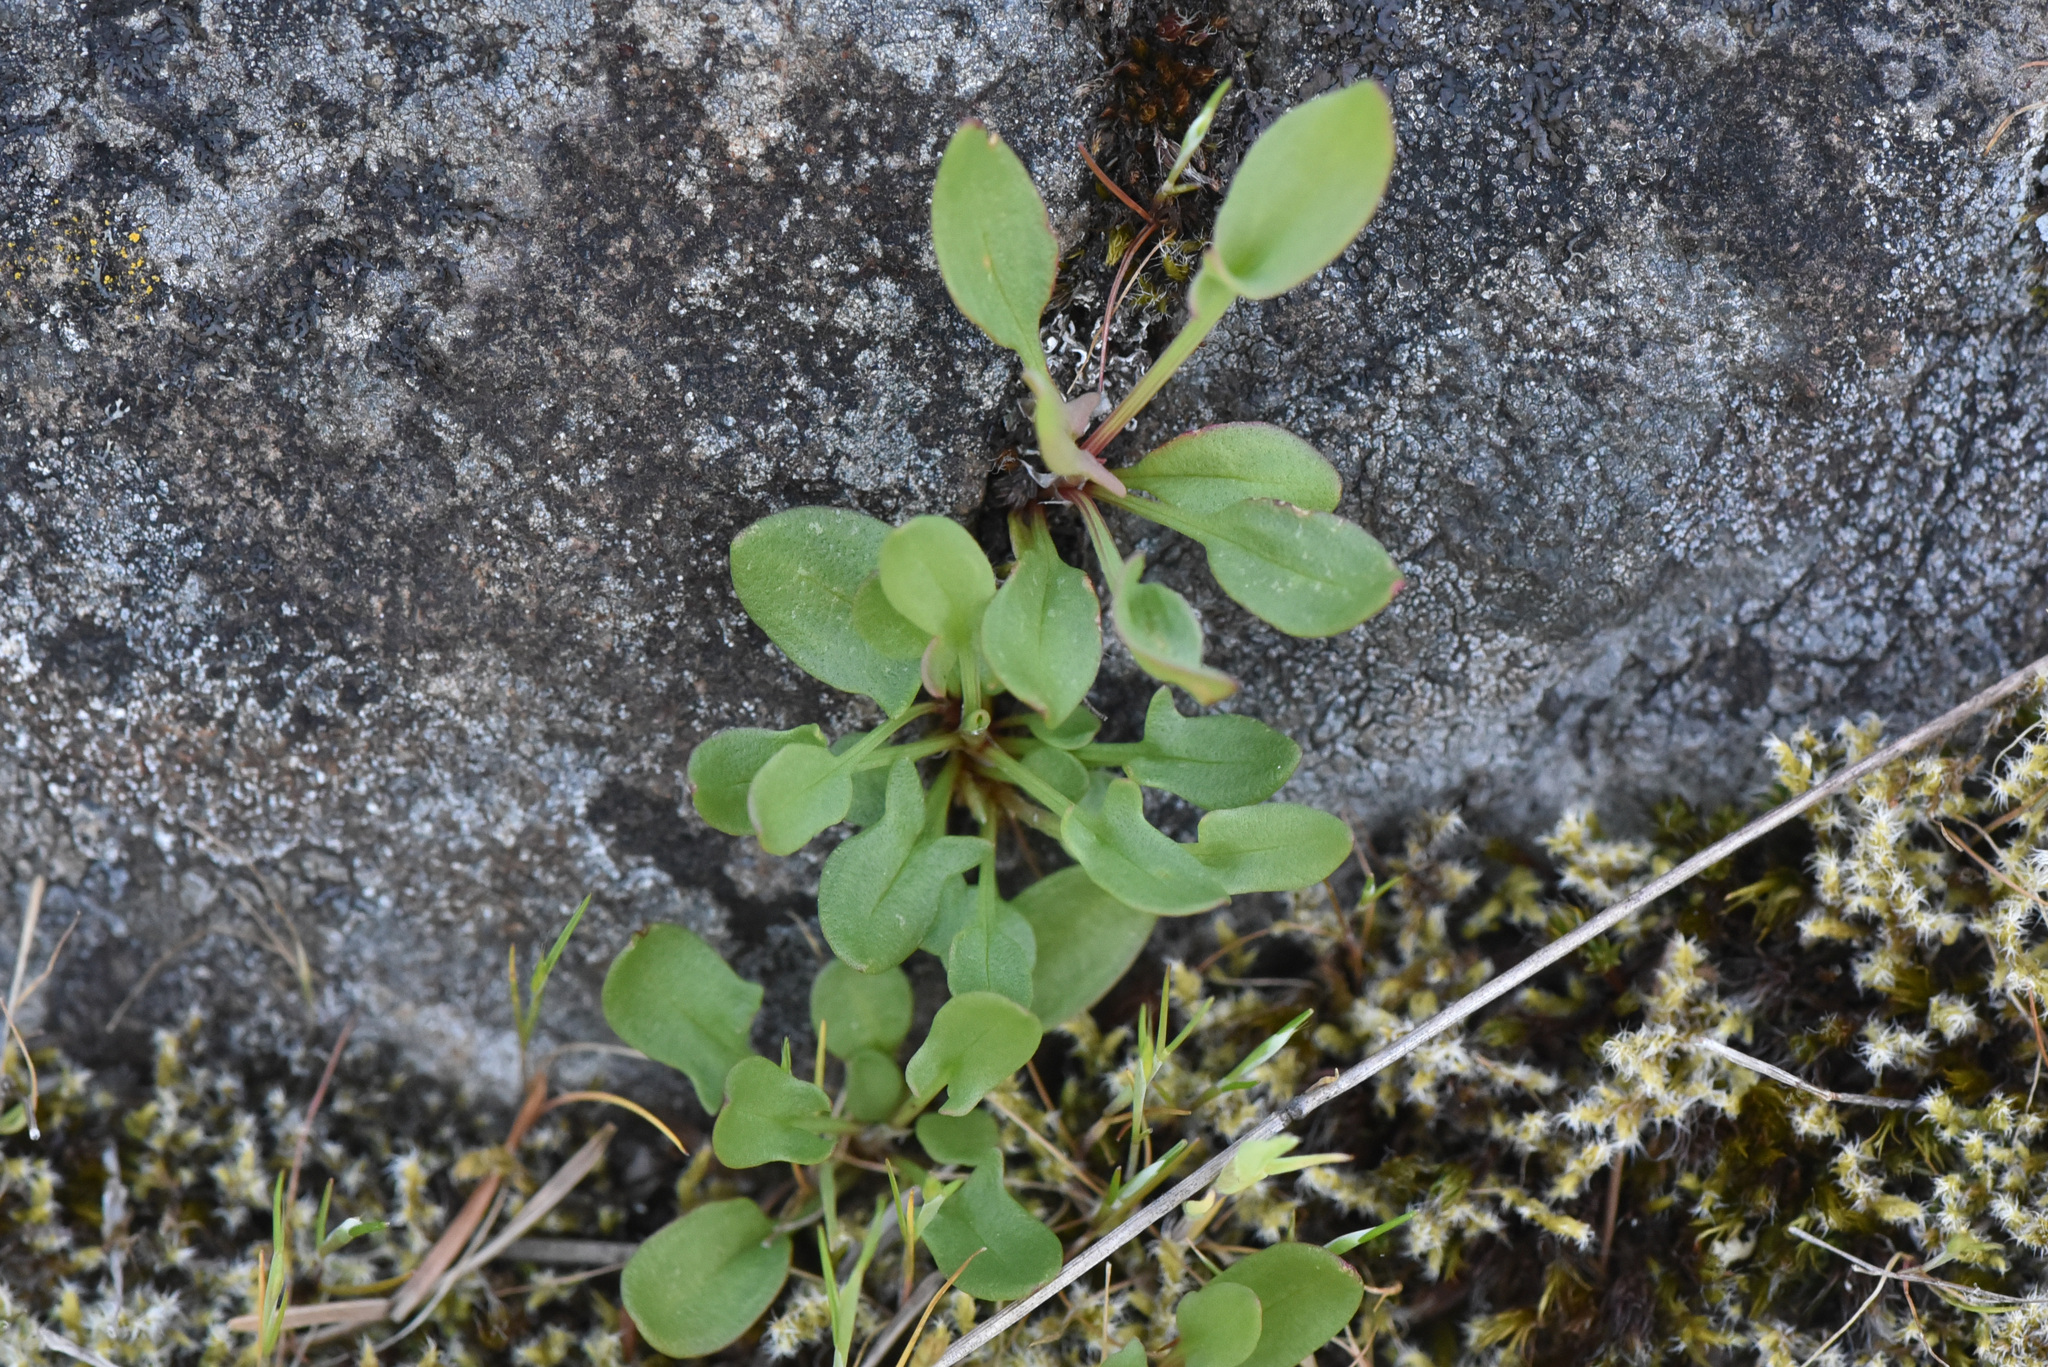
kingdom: Plantae
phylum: Tracheophyta
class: Magnoliopsida
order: Caryophyllales
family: Polygonaceae
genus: Rumex
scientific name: Rumex acetosella
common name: Common sheep sorrel
